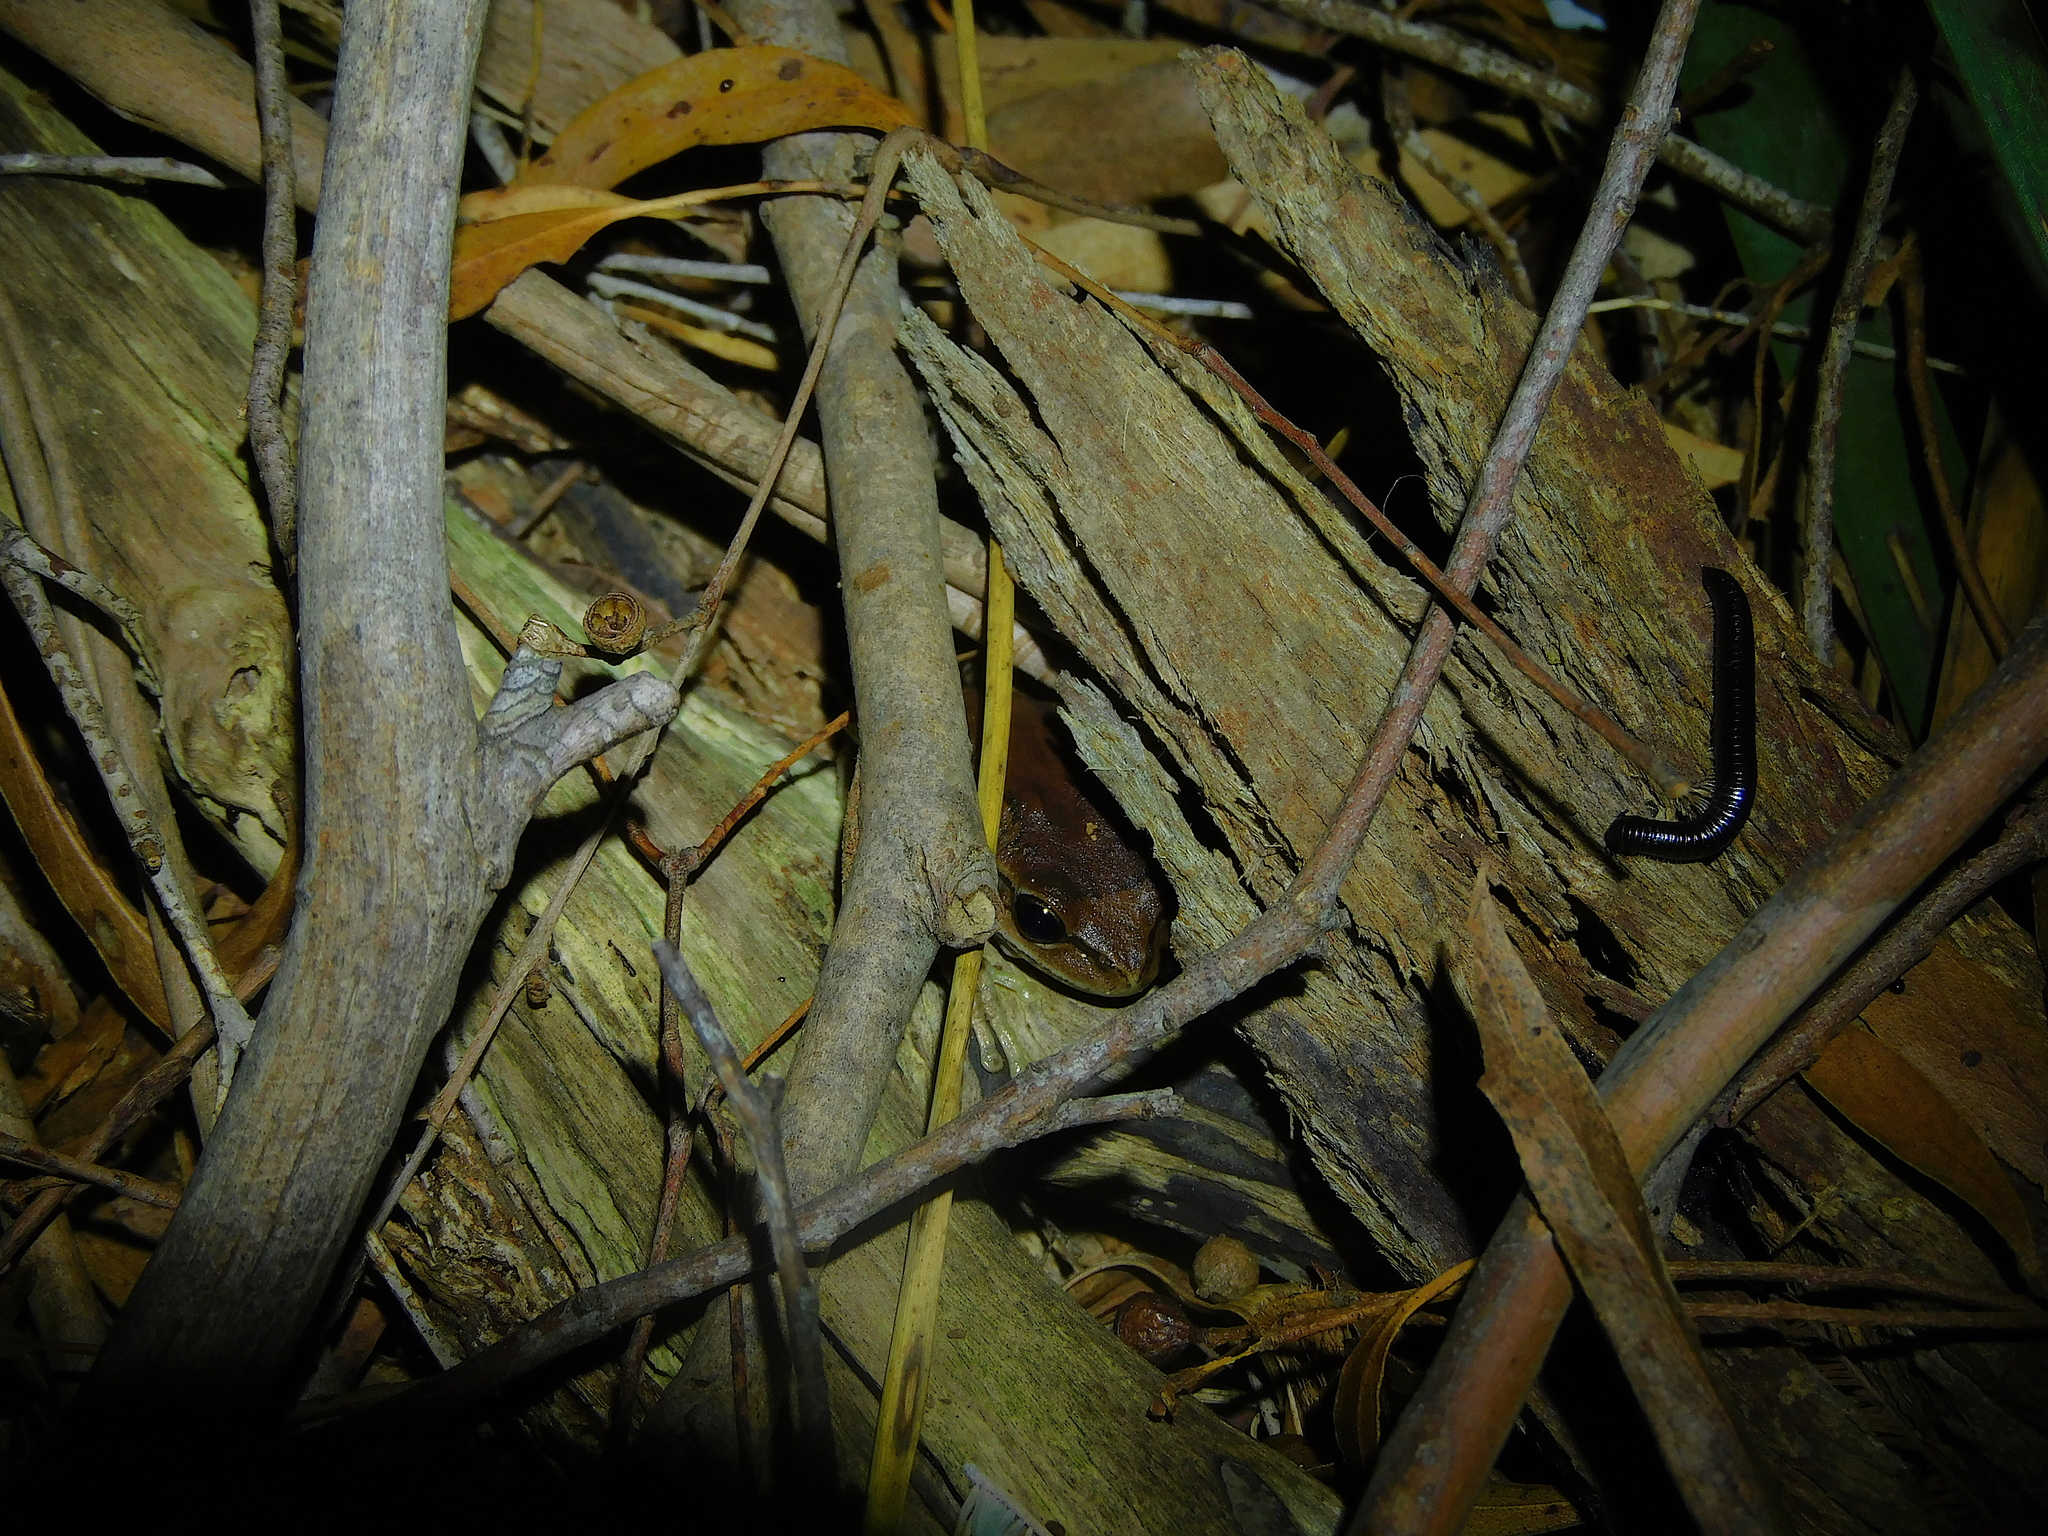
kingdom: Animalia
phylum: Chordata
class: Amphibia
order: Anura
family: Pelodryadidae
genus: Litoria
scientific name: Litoria ewingii
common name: Southern brown tree frog
